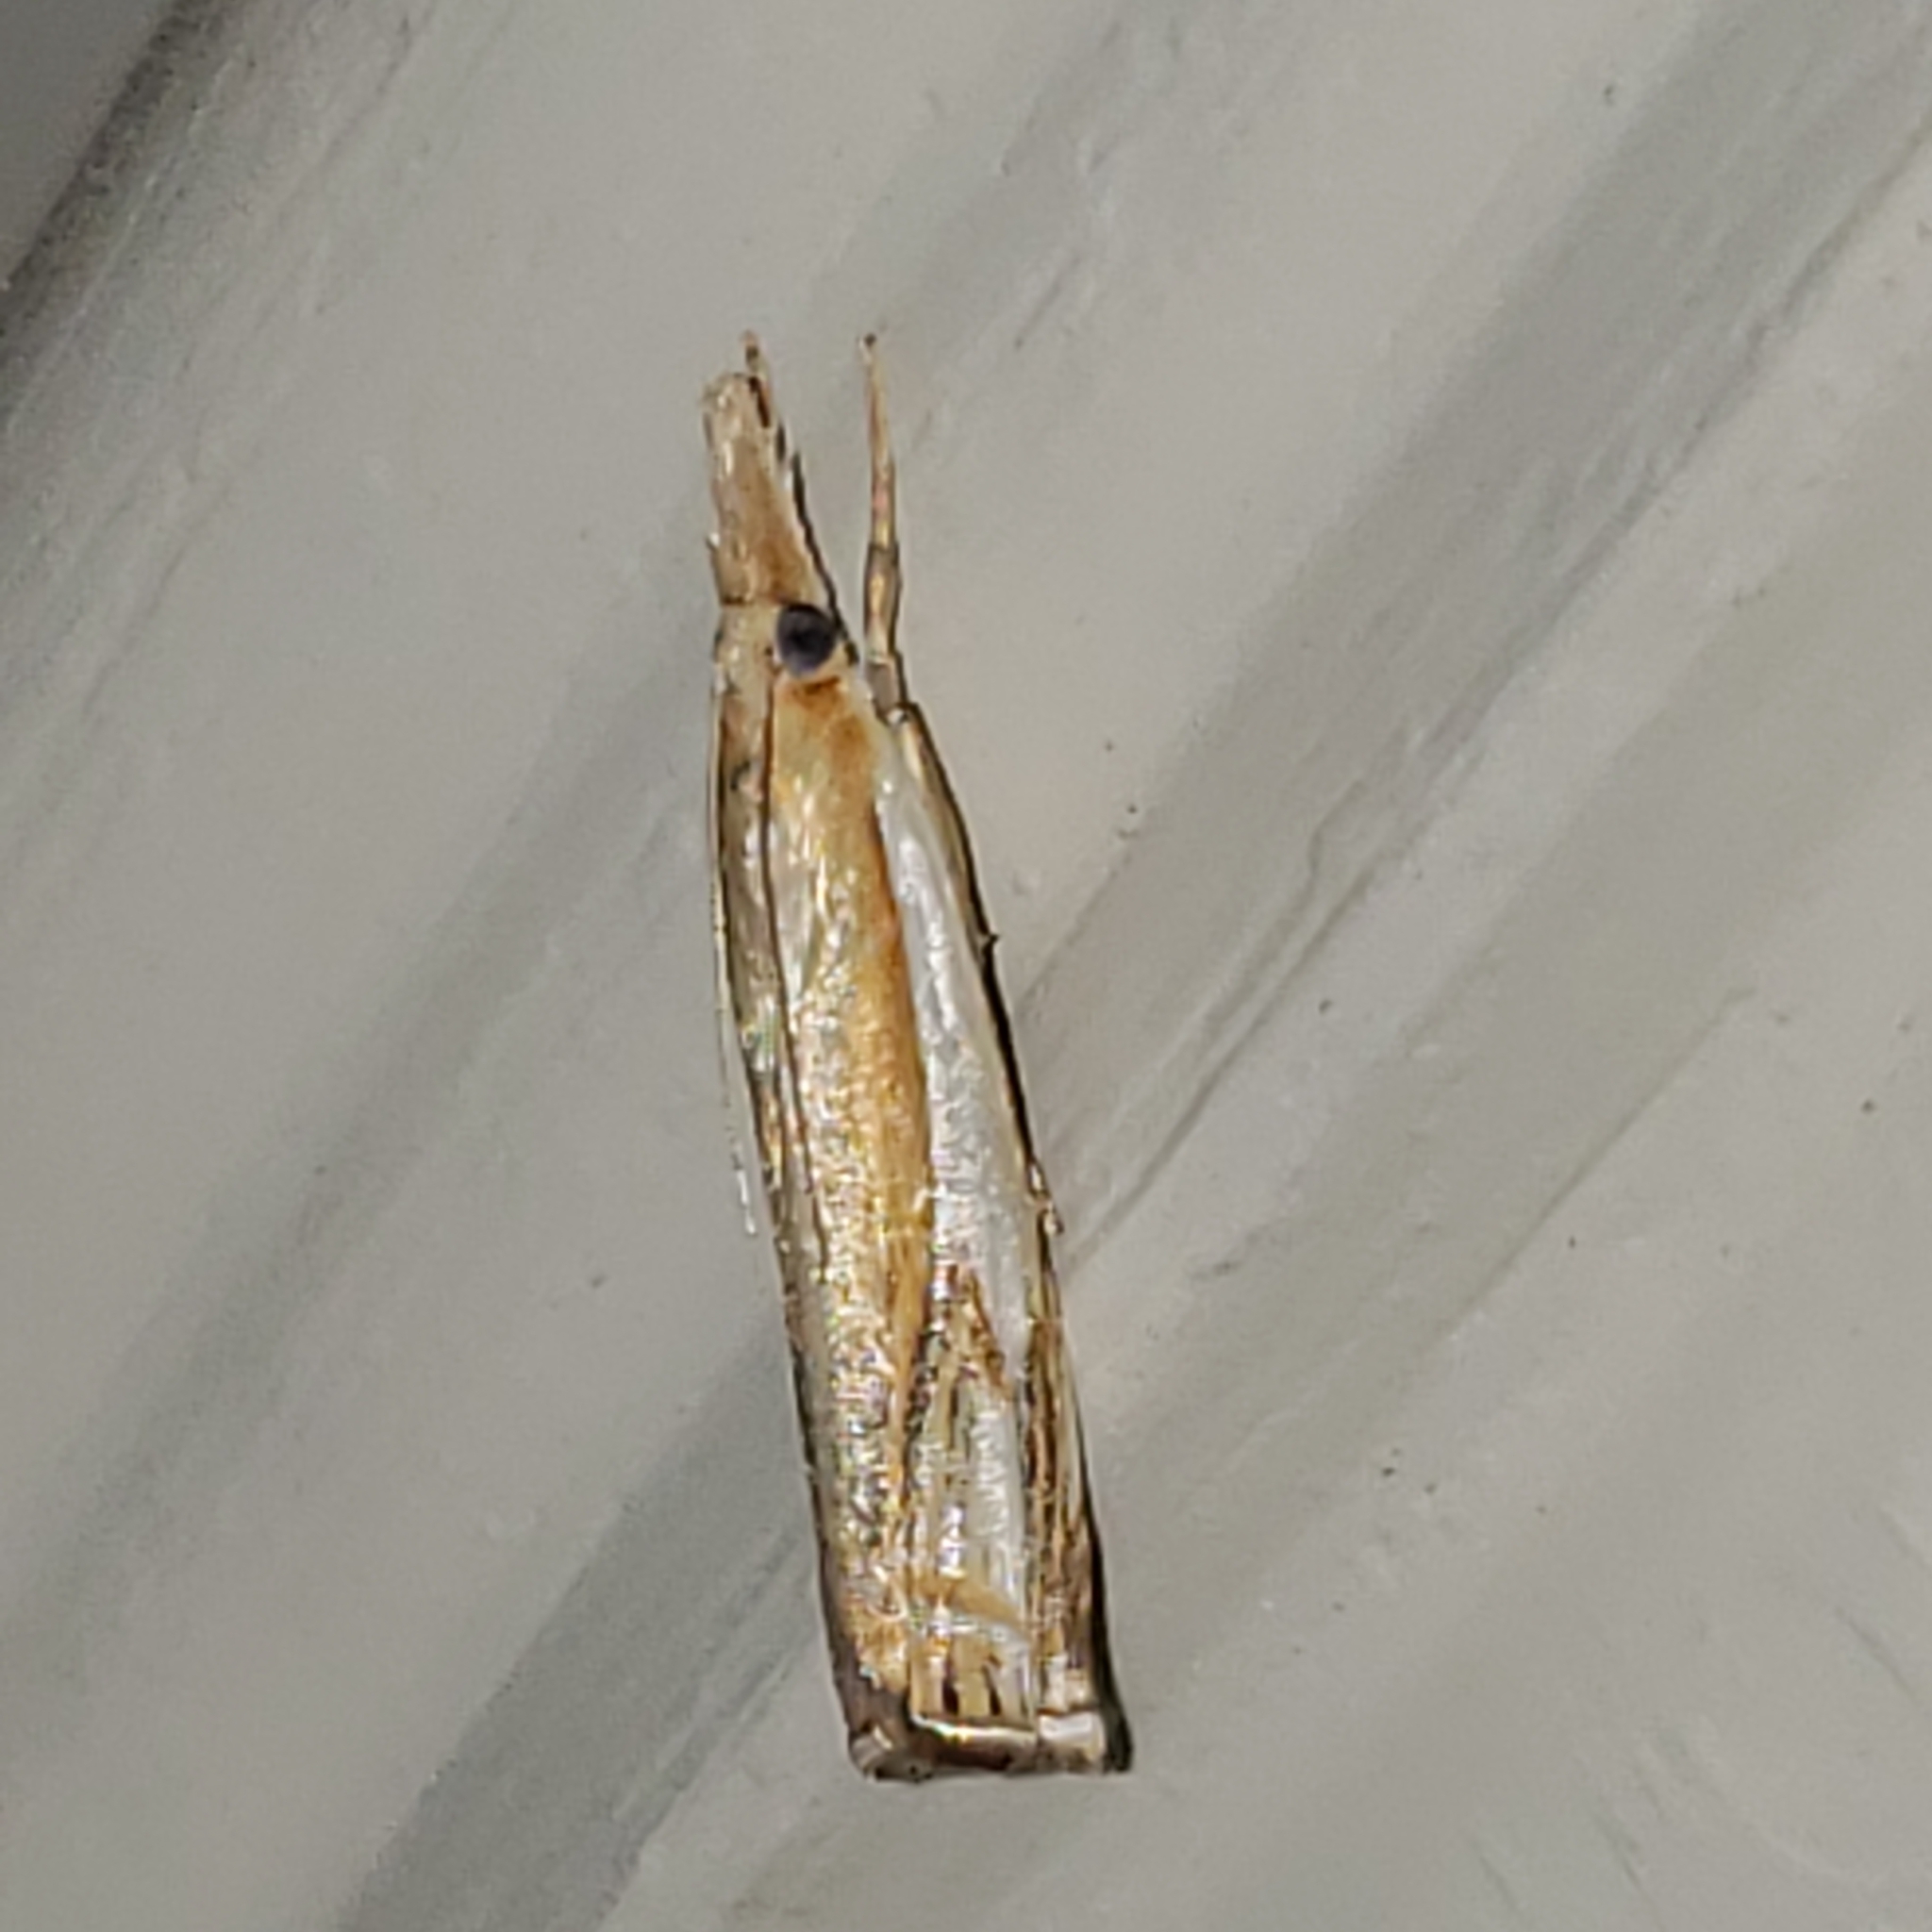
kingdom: Animalia
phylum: Arthropoda
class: Insecta
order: Lepidoptera
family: Crambidae
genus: Crambus
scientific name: Crambus agitatellus
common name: Double-banded grass-veneer
